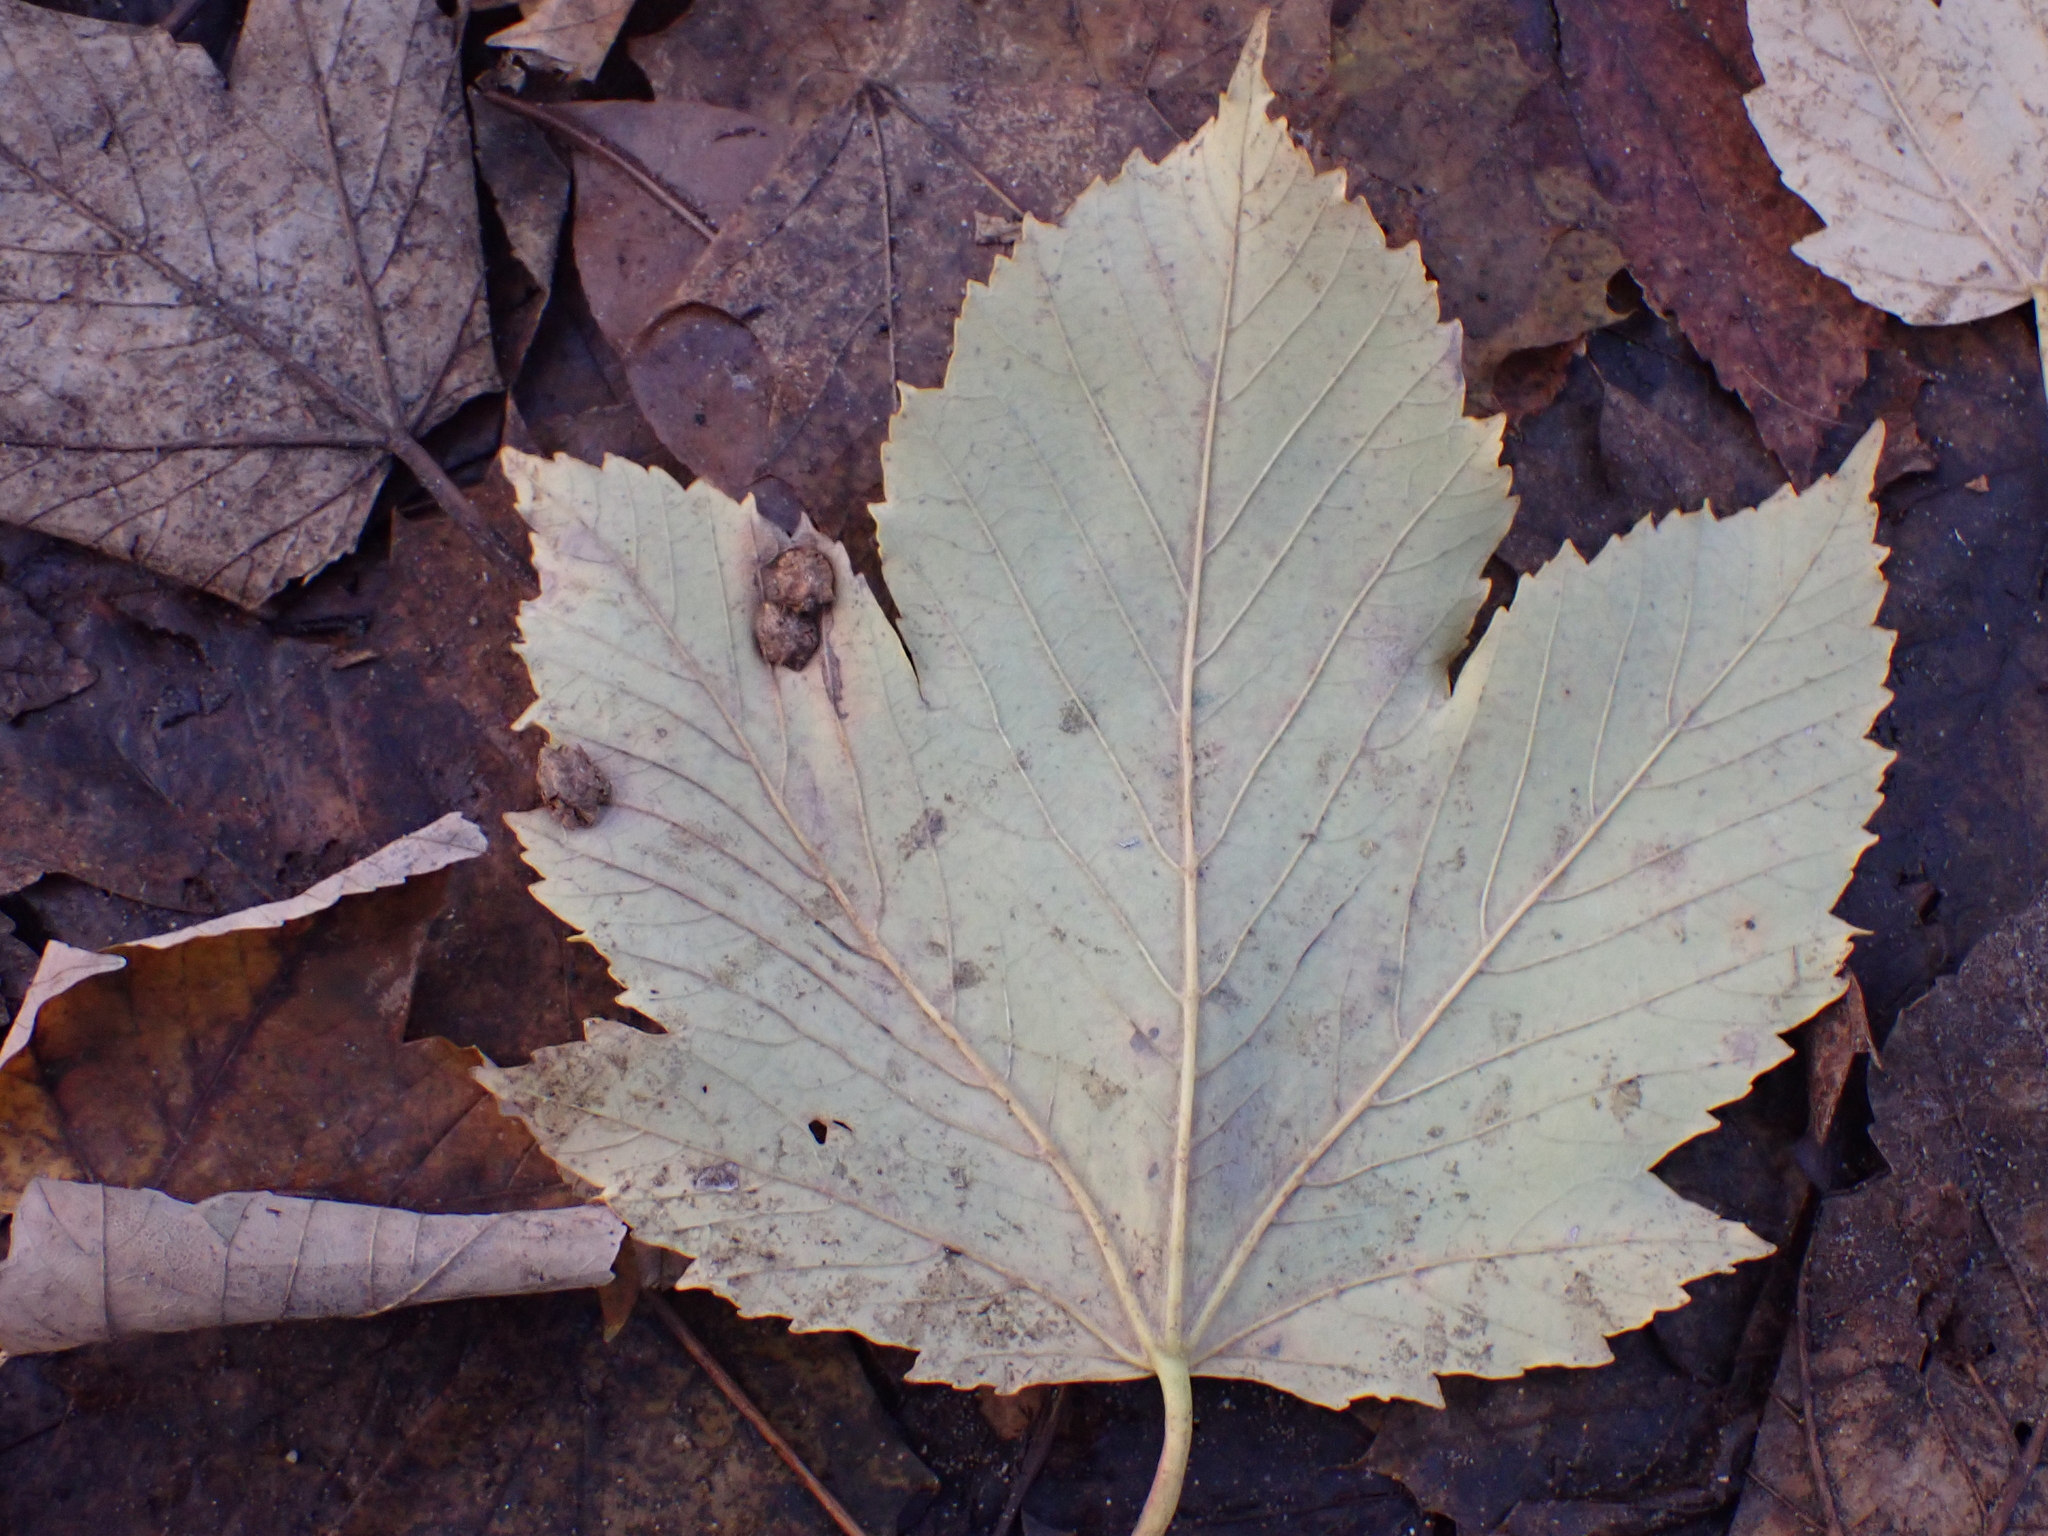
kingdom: Animalia
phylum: Arthropoda
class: Insecta
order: Hymenoptera
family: Cynipidae
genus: Pediaspis
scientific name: Pediaspis aceris
